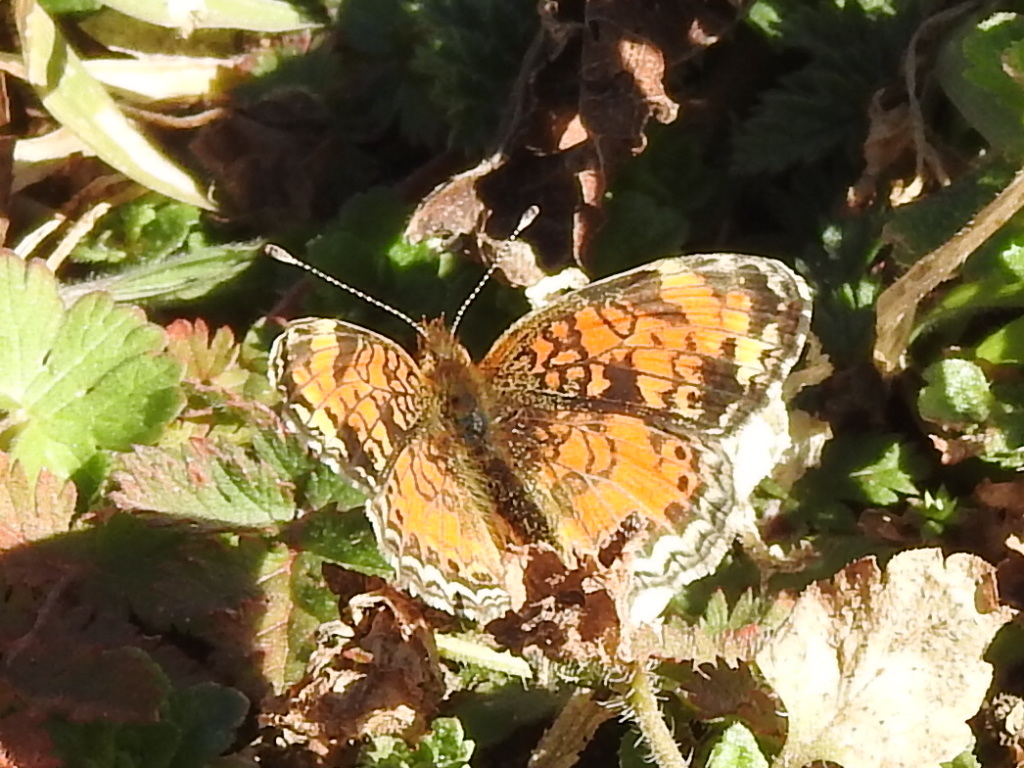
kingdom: Animalia
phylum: Arthropoda
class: Insecta
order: Lepidoptera
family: Nymphalidae
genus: Phyciodes
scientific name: Phyciodes tharos
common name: Pearl crescent
